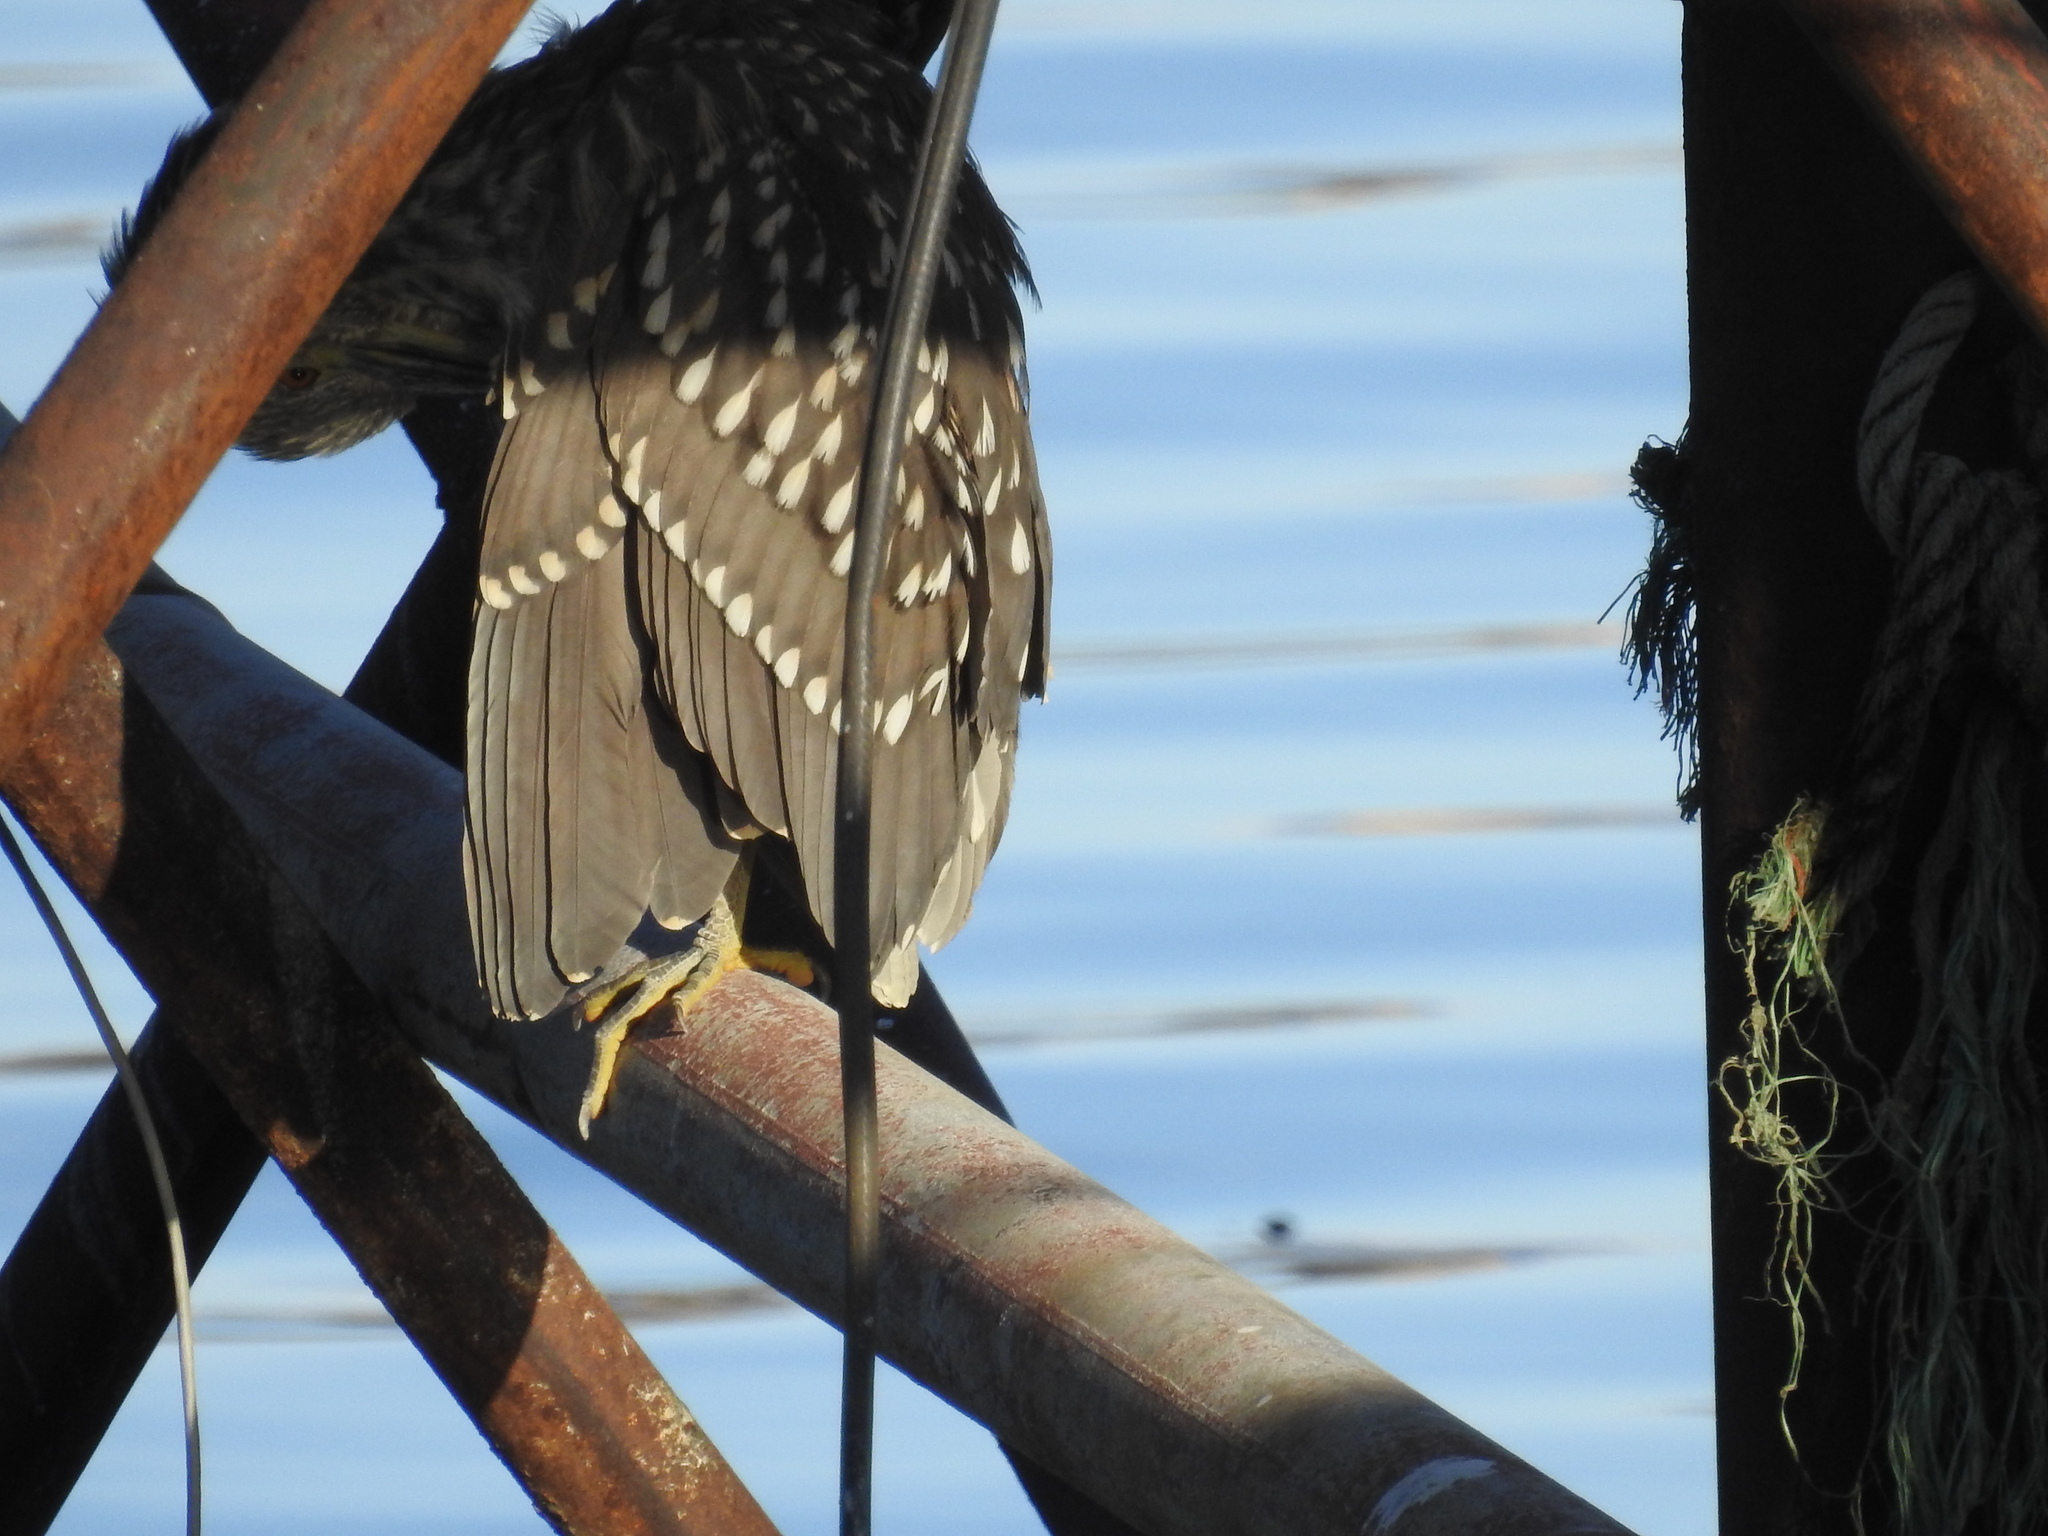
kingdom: Animalia
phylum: Chordata
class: Aves
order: Pelecaniformes
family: Ardeidae
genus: Nycticorax
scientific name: Nycticorax nycticorax
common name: Black-crowned night heron
